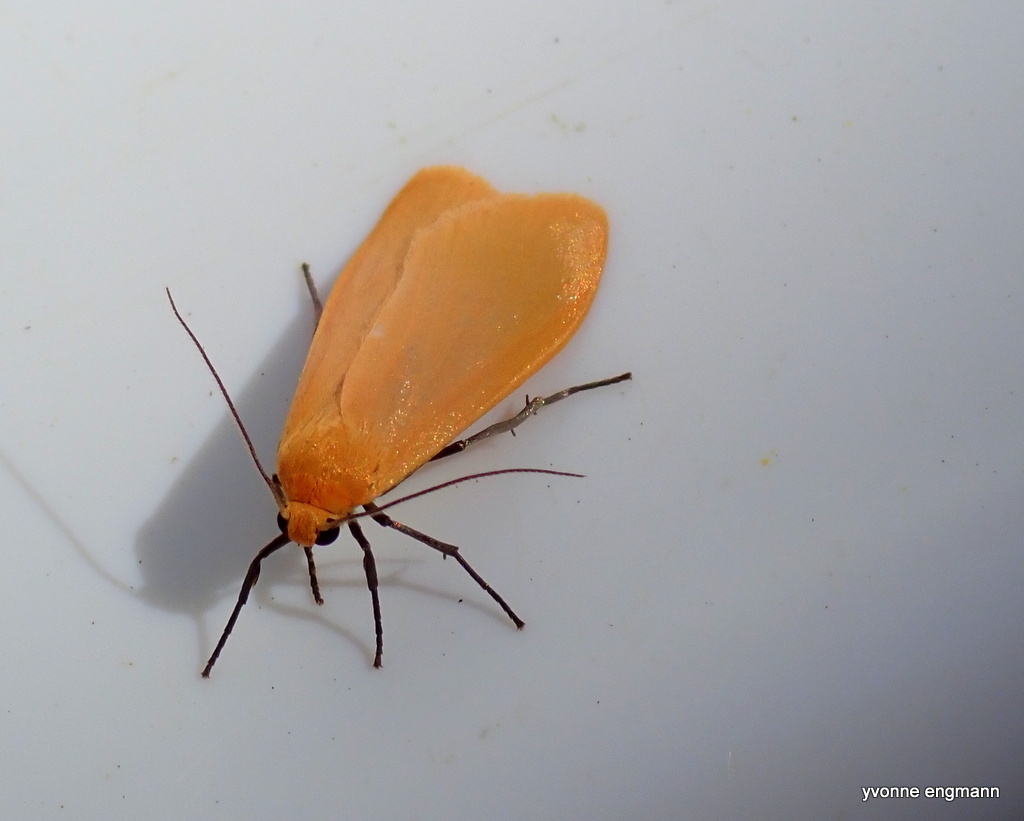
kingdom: Animalia
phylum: Arthropoda
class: Insecta
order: Lepidoptera
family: Erebidae
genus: Wittia
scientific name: Wittia sororcula
